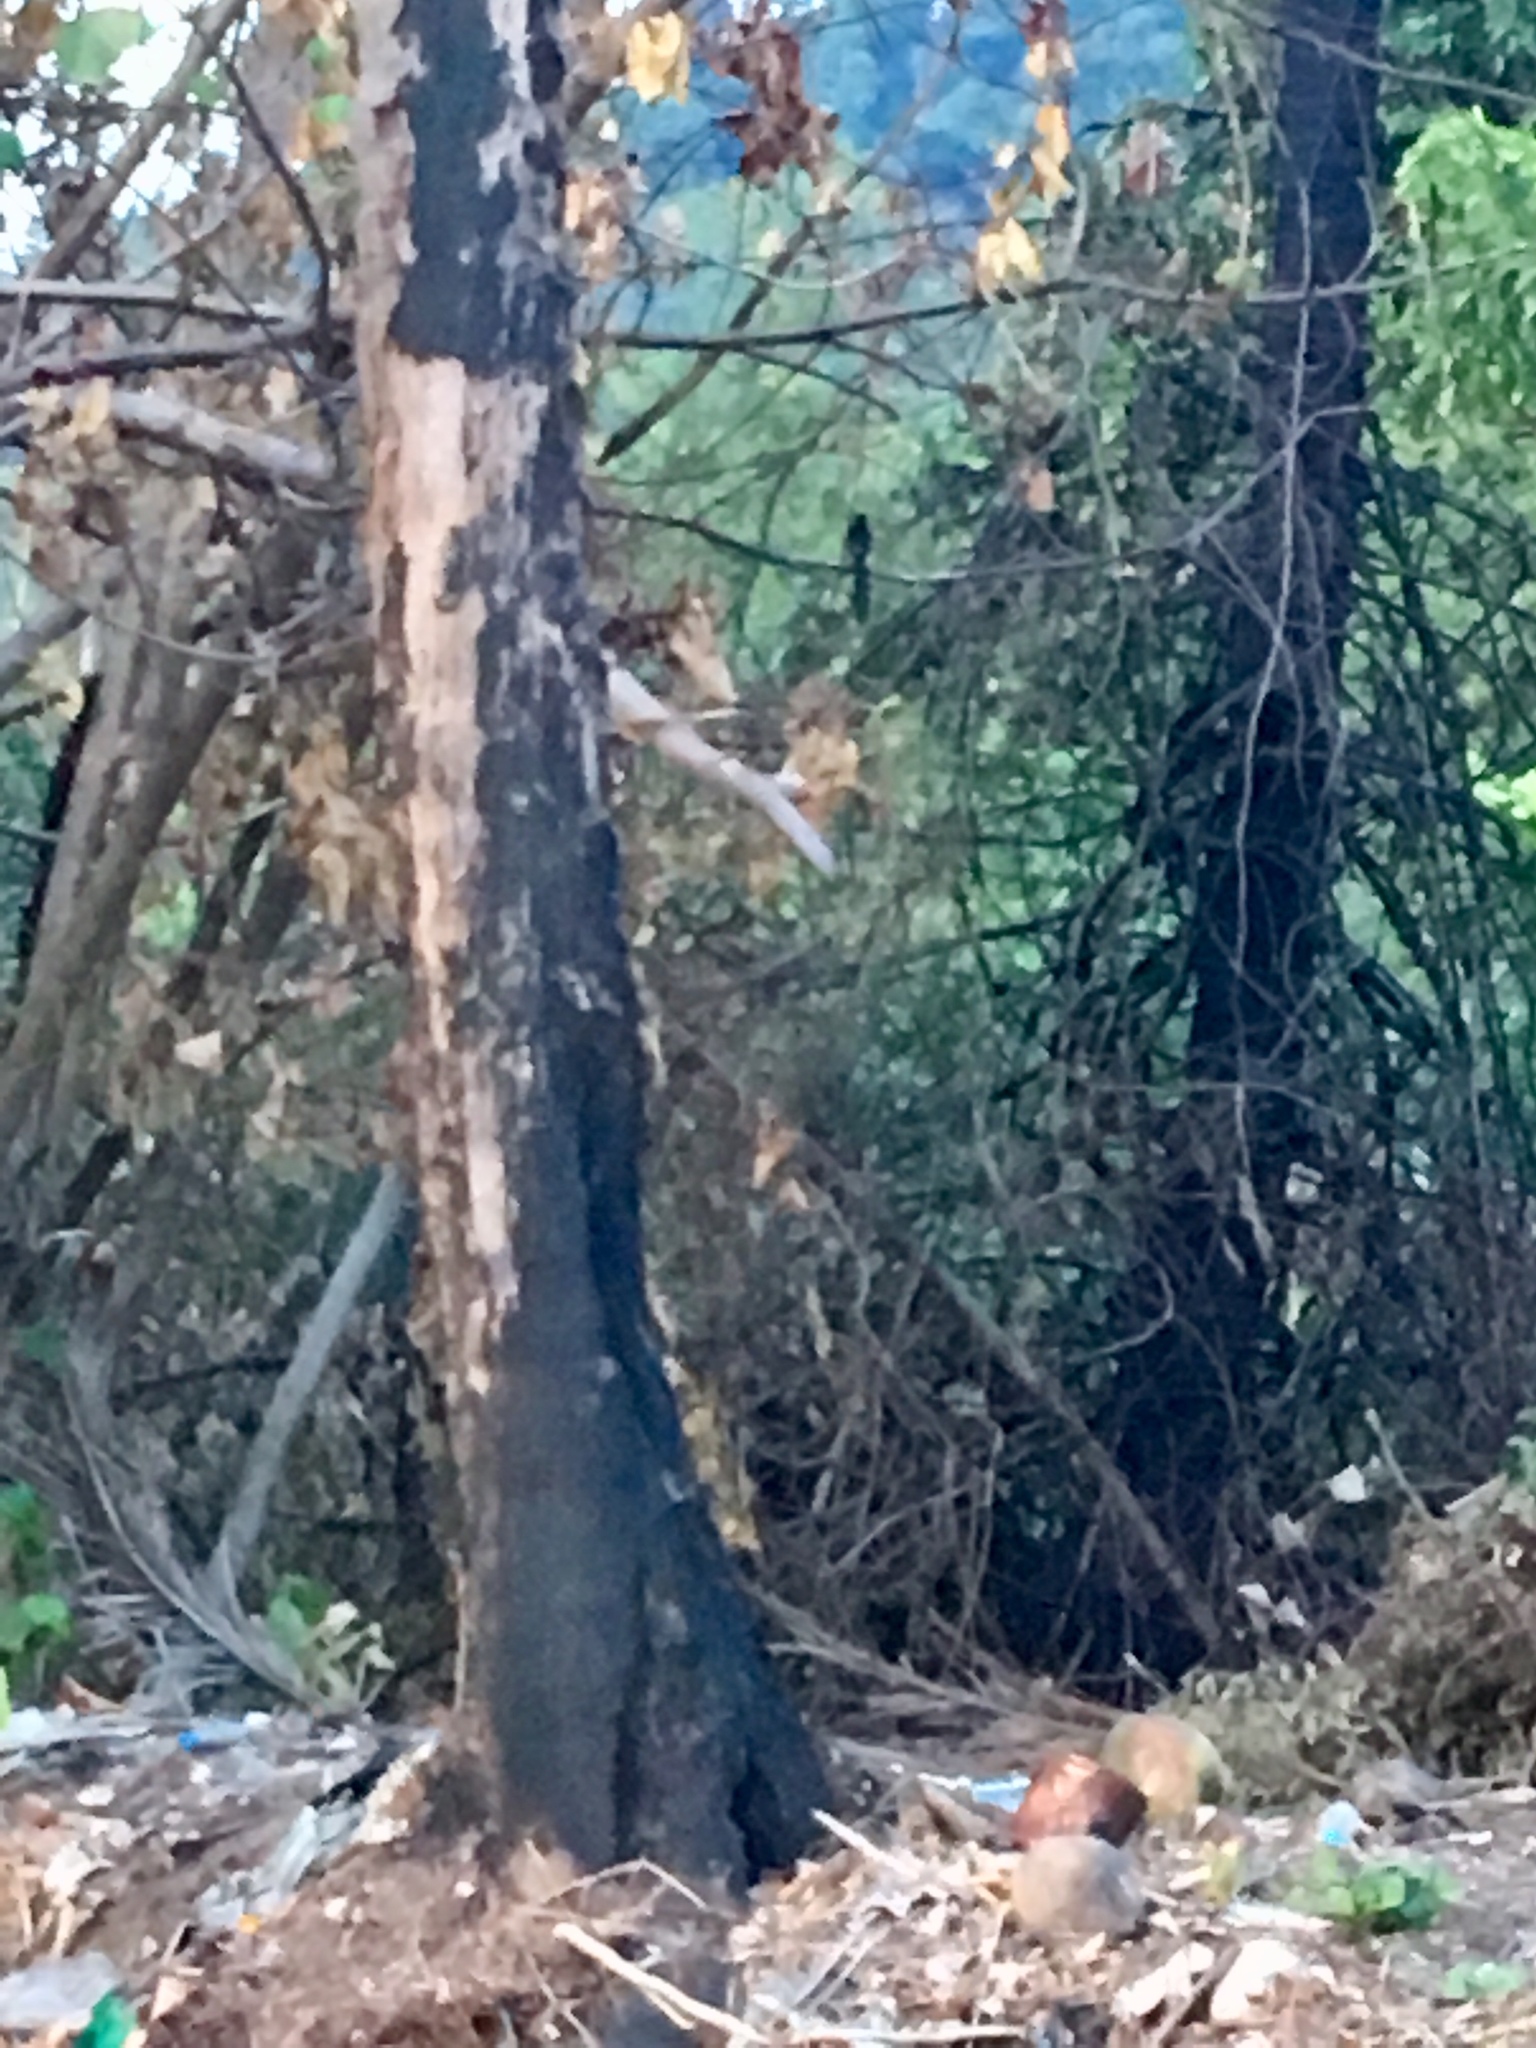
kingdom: Animalia
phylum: Chordata
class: Aves
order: Passeriformes
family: Muscicapidae
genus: Copsychus
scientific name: Copsychus malabaricus
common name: White-rumped shama
